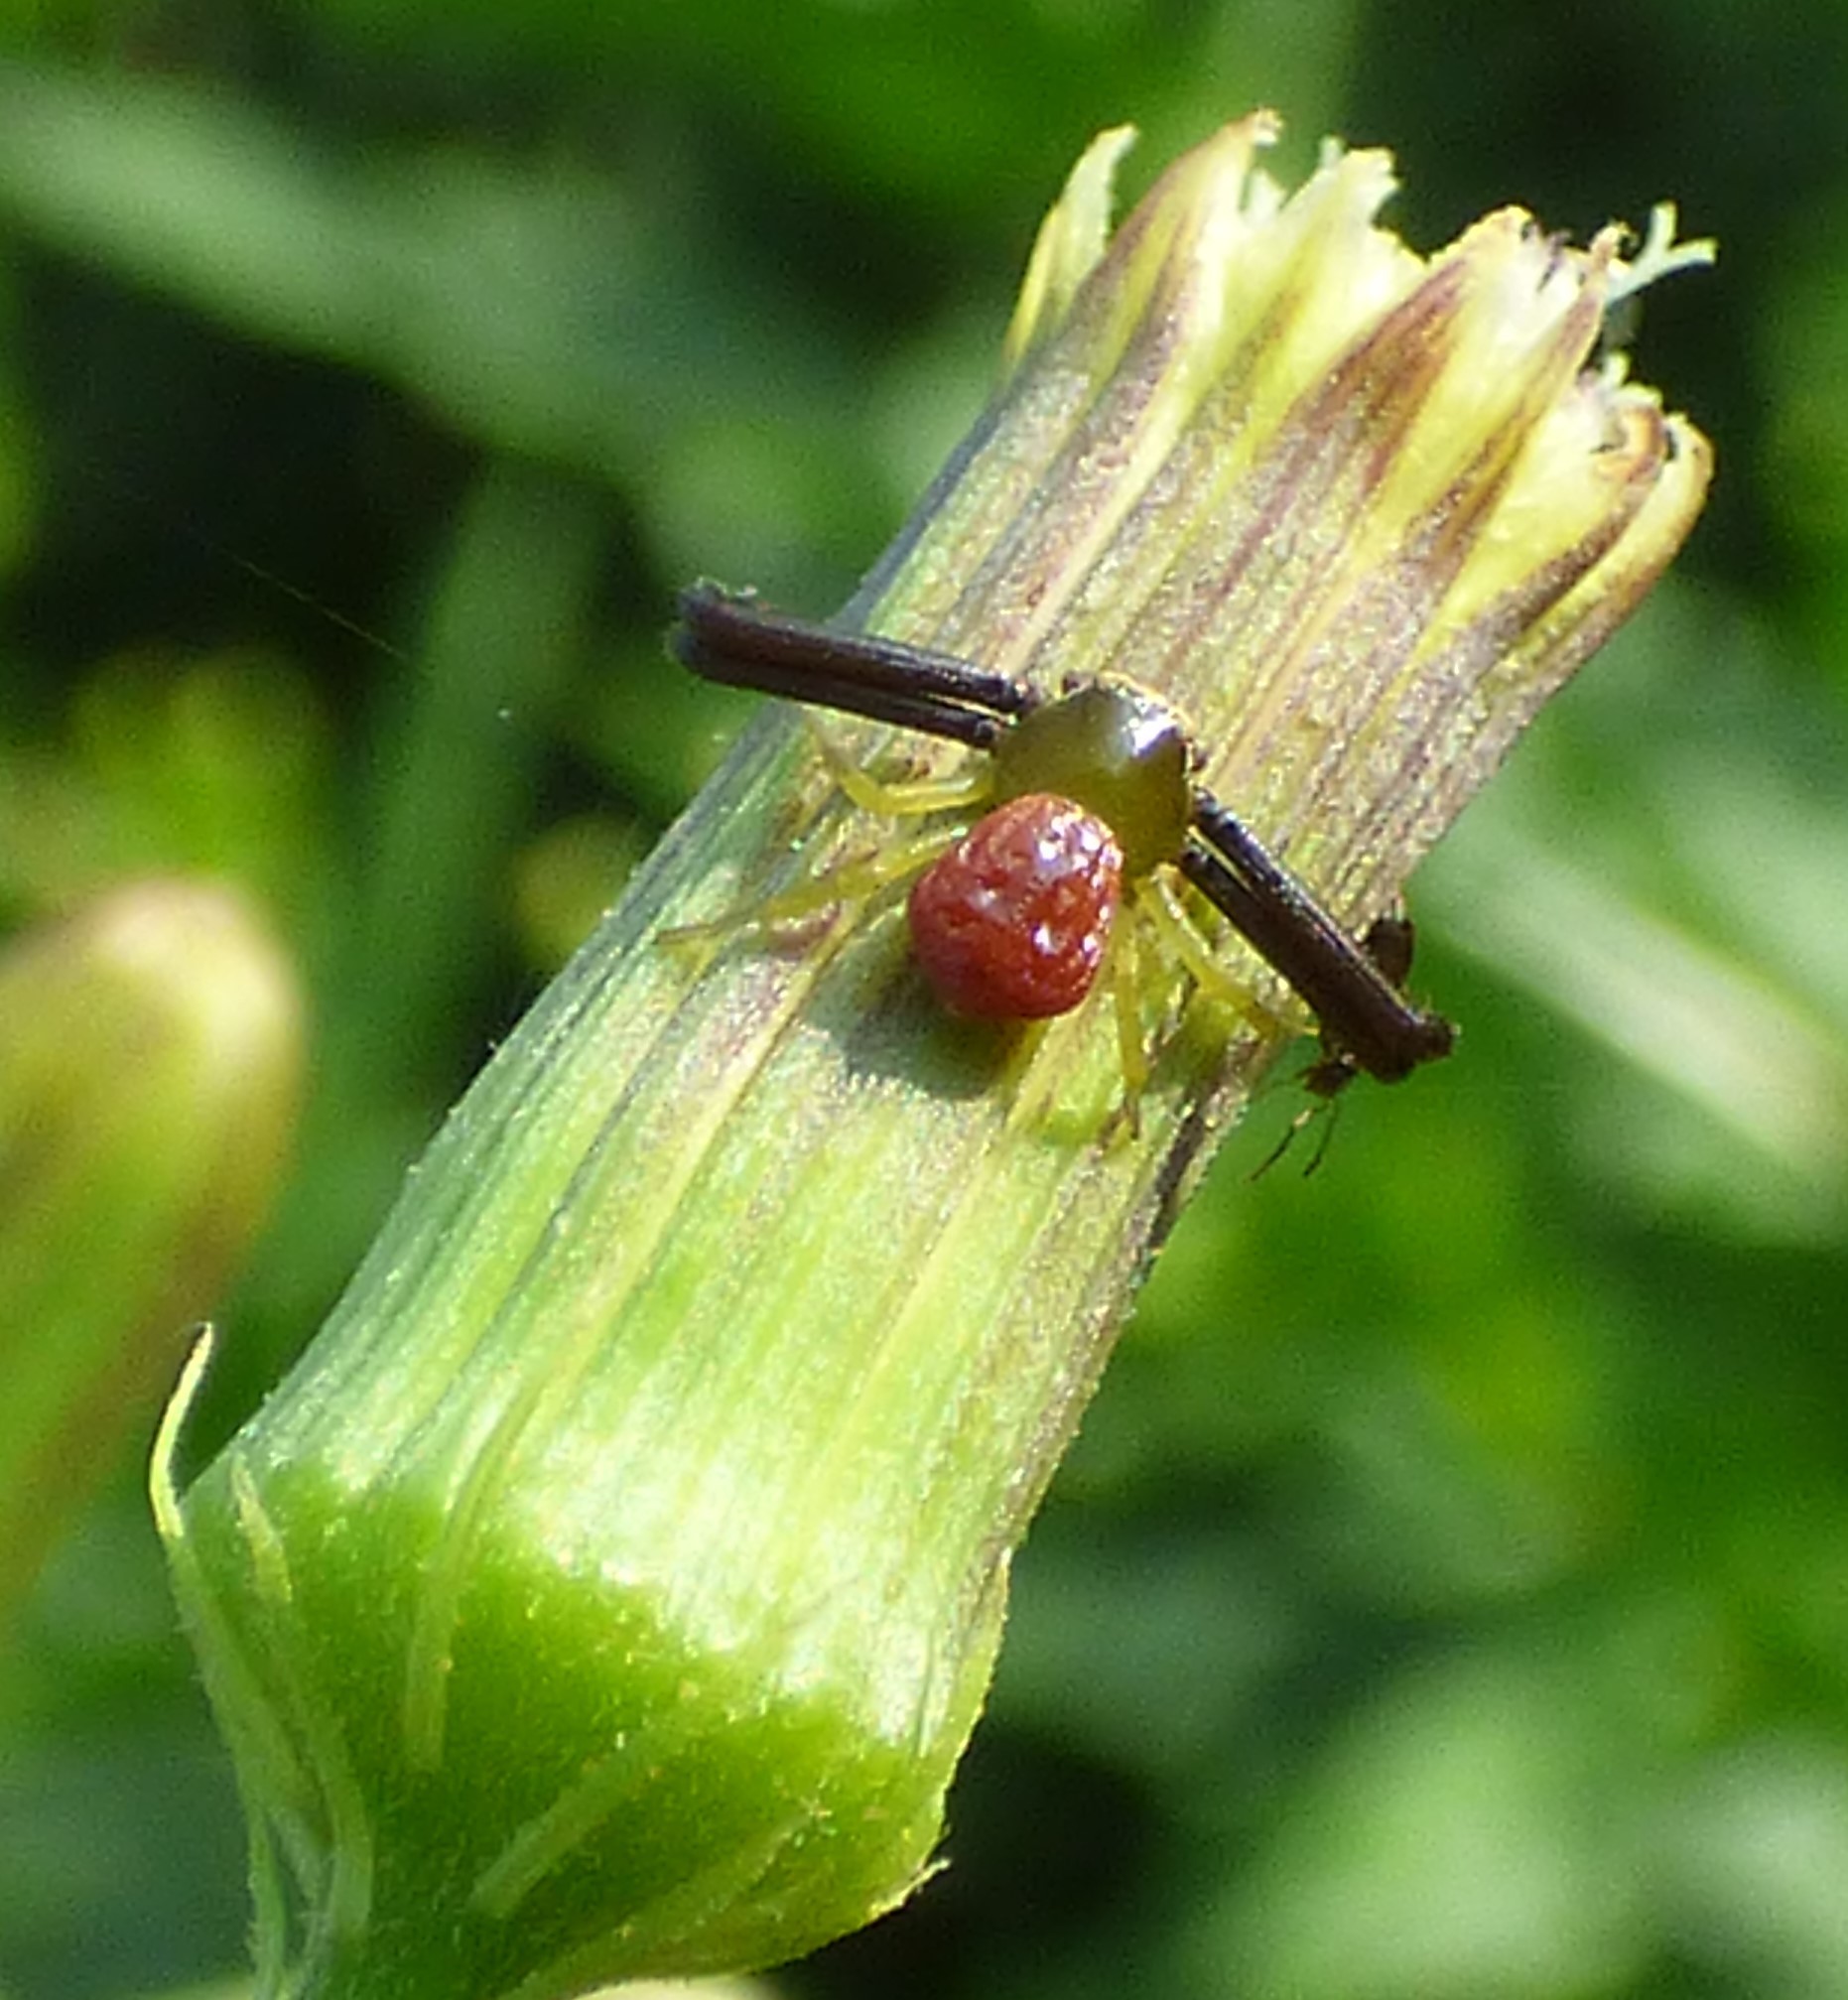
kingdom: Animalia
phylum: Arthropoda
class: Arachnida
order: Araneae
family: Thomisidae
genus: Misumenoides
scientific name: Misumenoides formosipes
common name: White-banded crab spider
